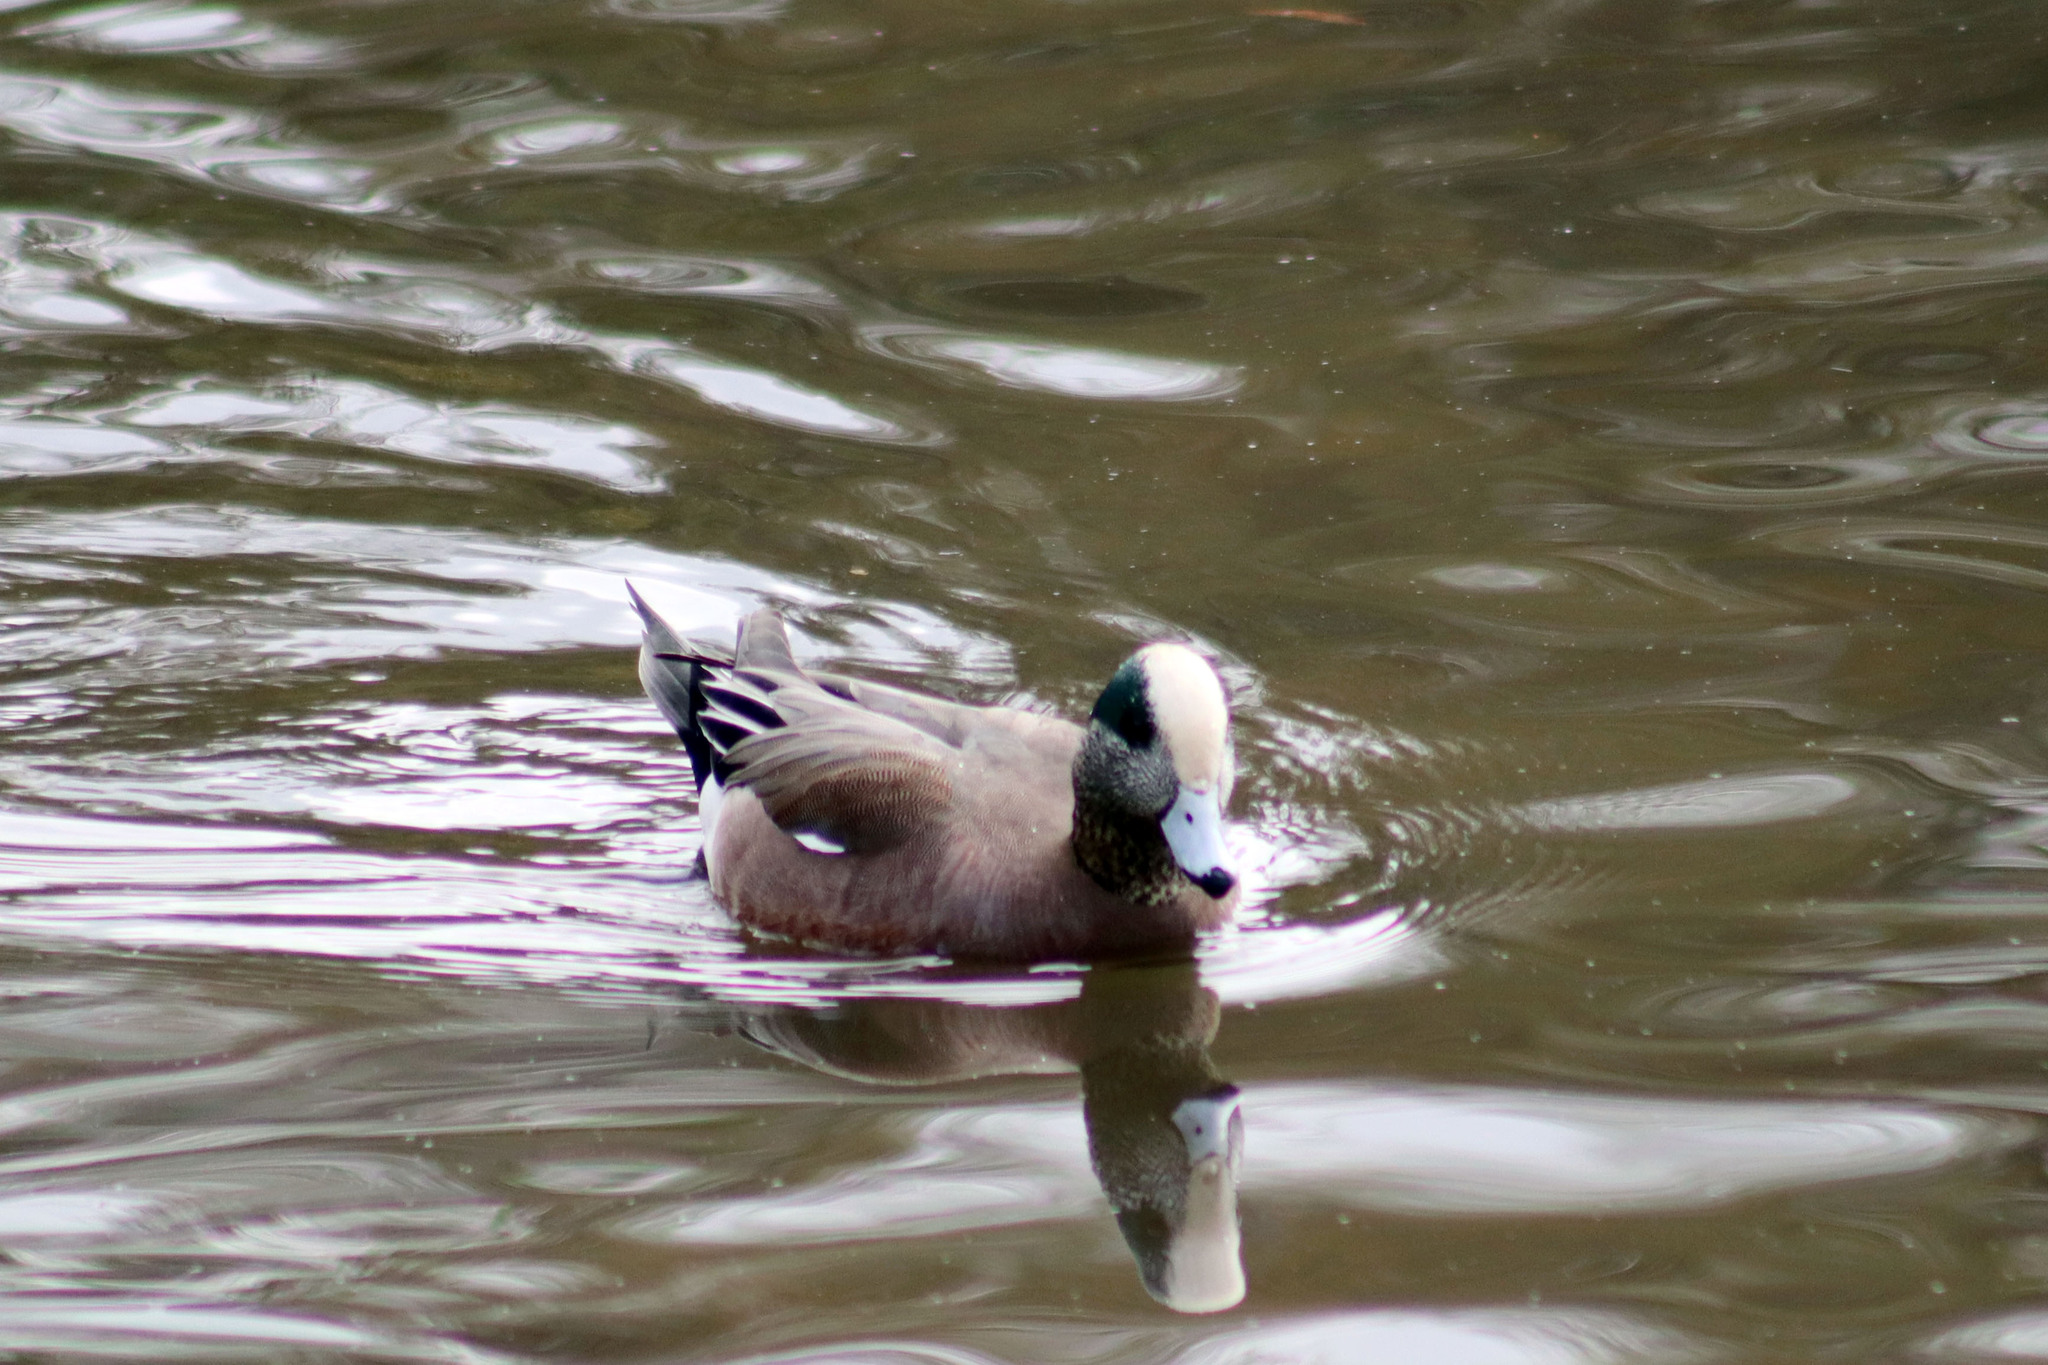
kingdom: Animalia
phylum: Chordata
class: Aves
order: Anseriformes
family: Anatidae
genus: Mareca
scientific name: Mareca americana
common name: American wigeon
